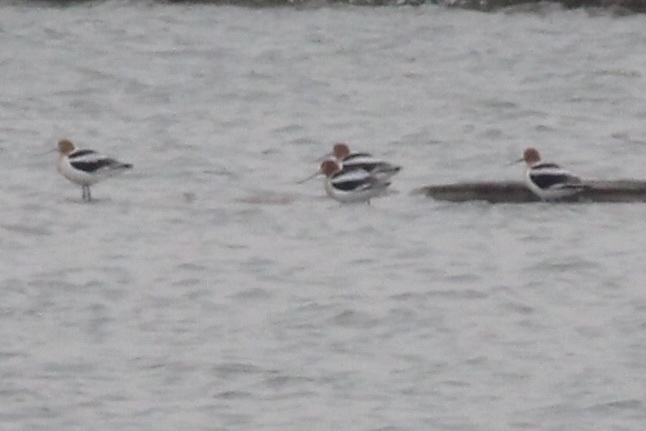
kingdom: Animalia
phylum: Chordata
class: Aves
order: Charadriiformes
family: Recurvirostridae
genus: Recurvirostra
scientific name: Recurvirostra americana
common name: American avocet
